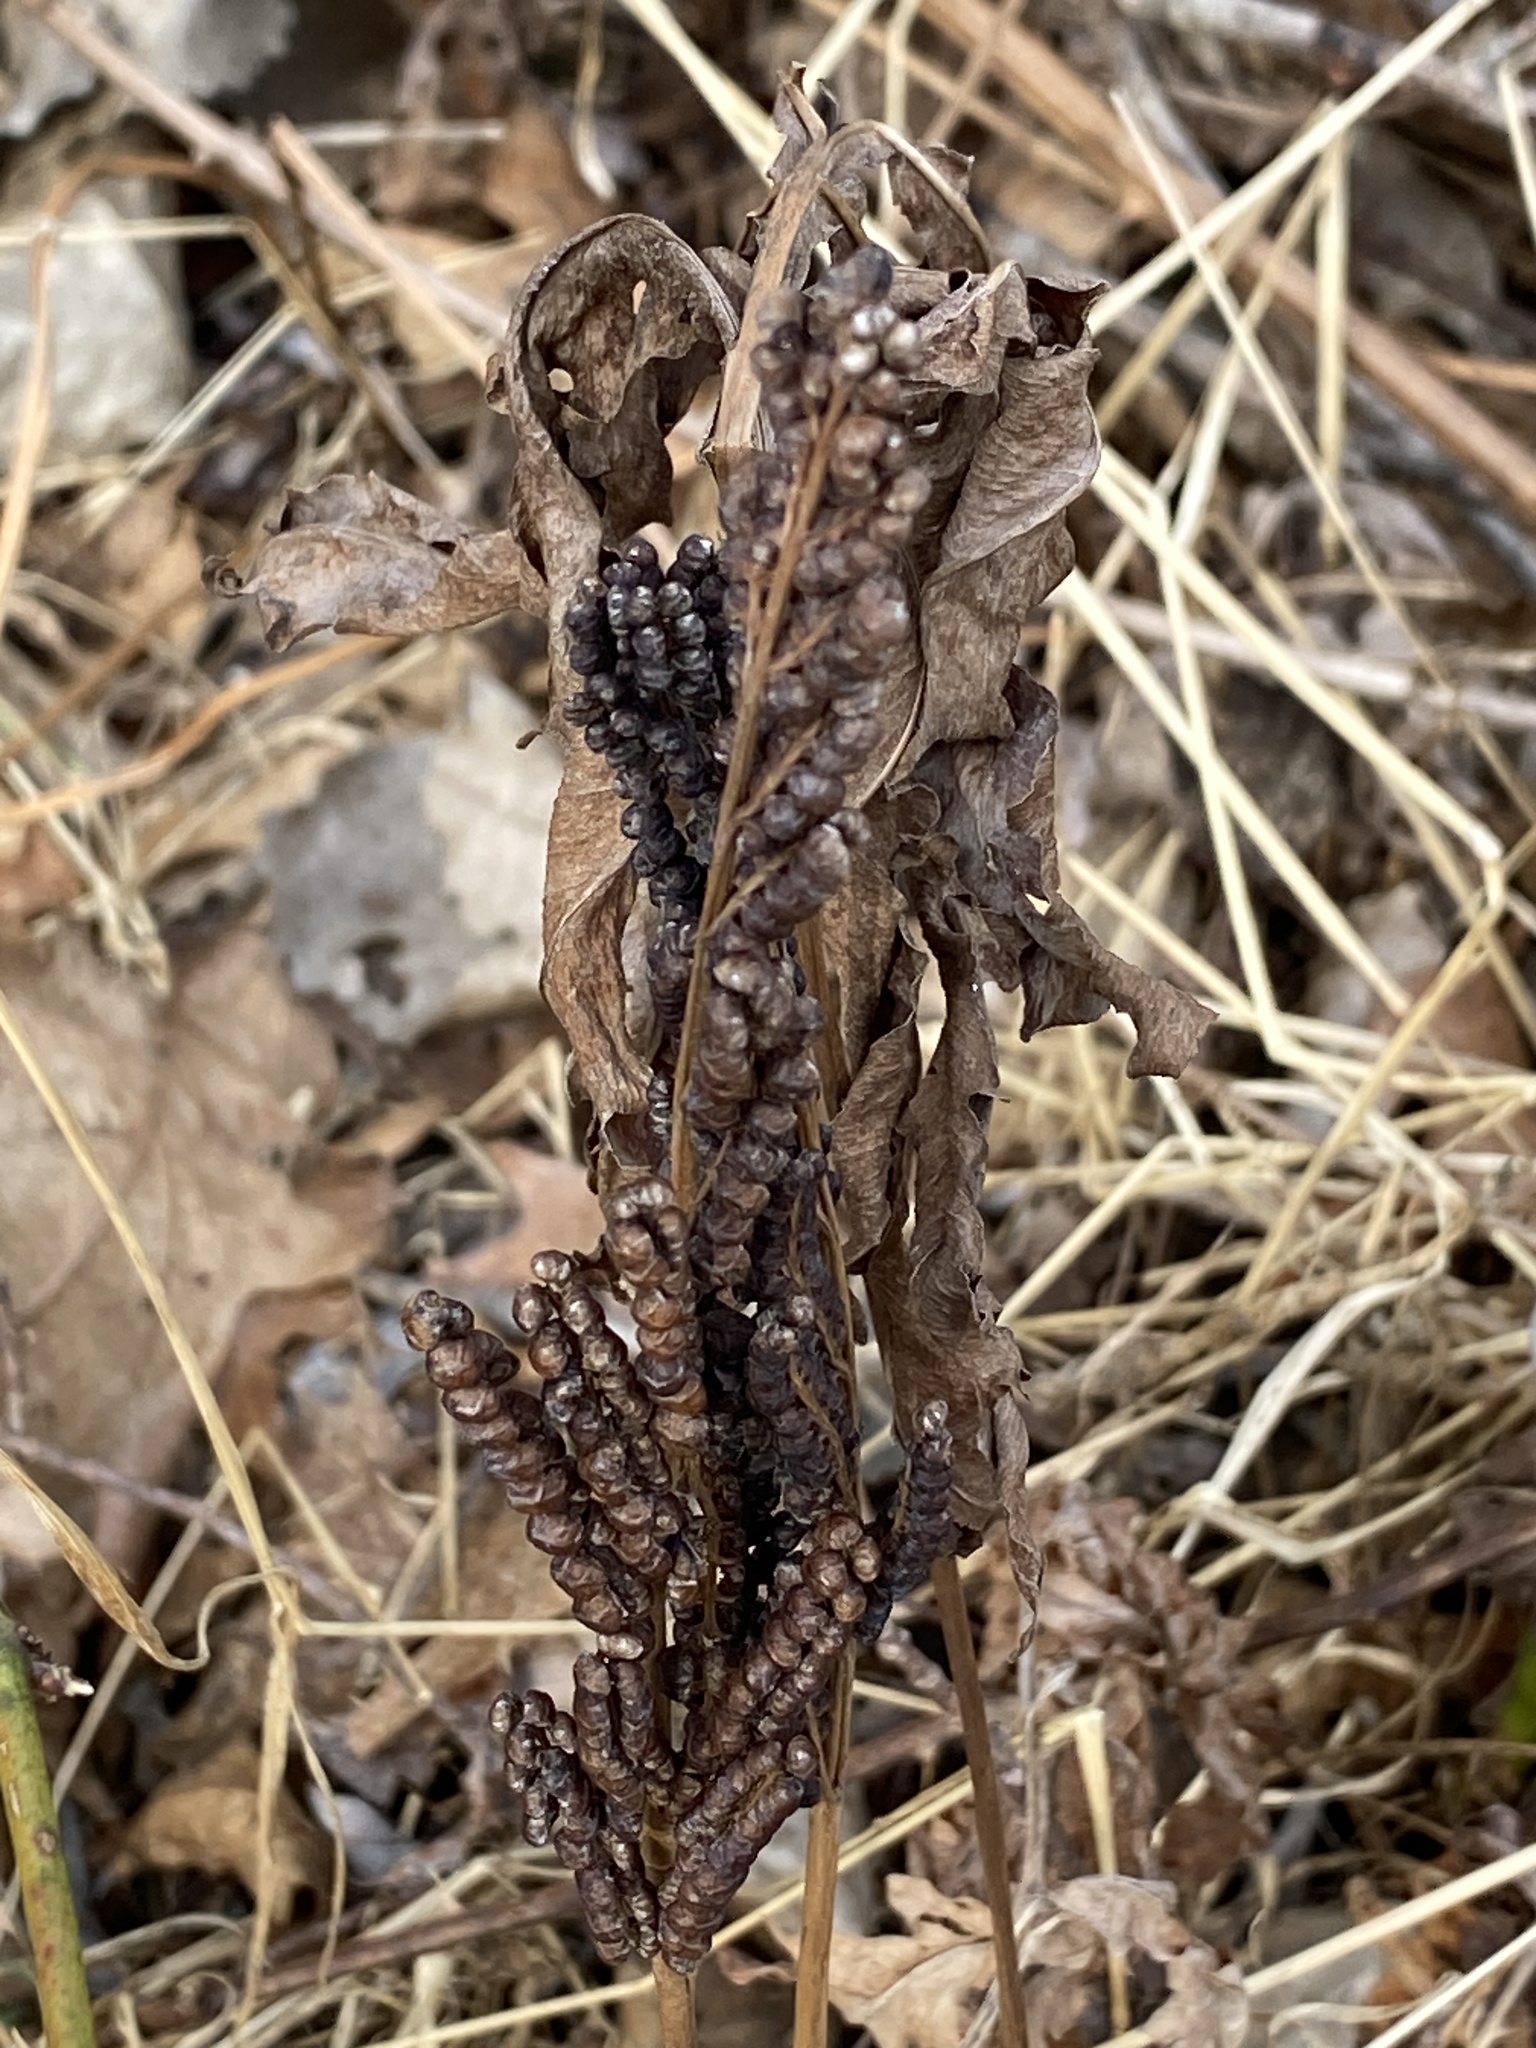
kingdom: Plantae
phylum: Tracheophyta
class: Polypodiopsida
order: Polypodiales
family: Onocleaceae
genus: Onoclea
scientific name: Onoclea sensibilis
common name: Sensitive fern
